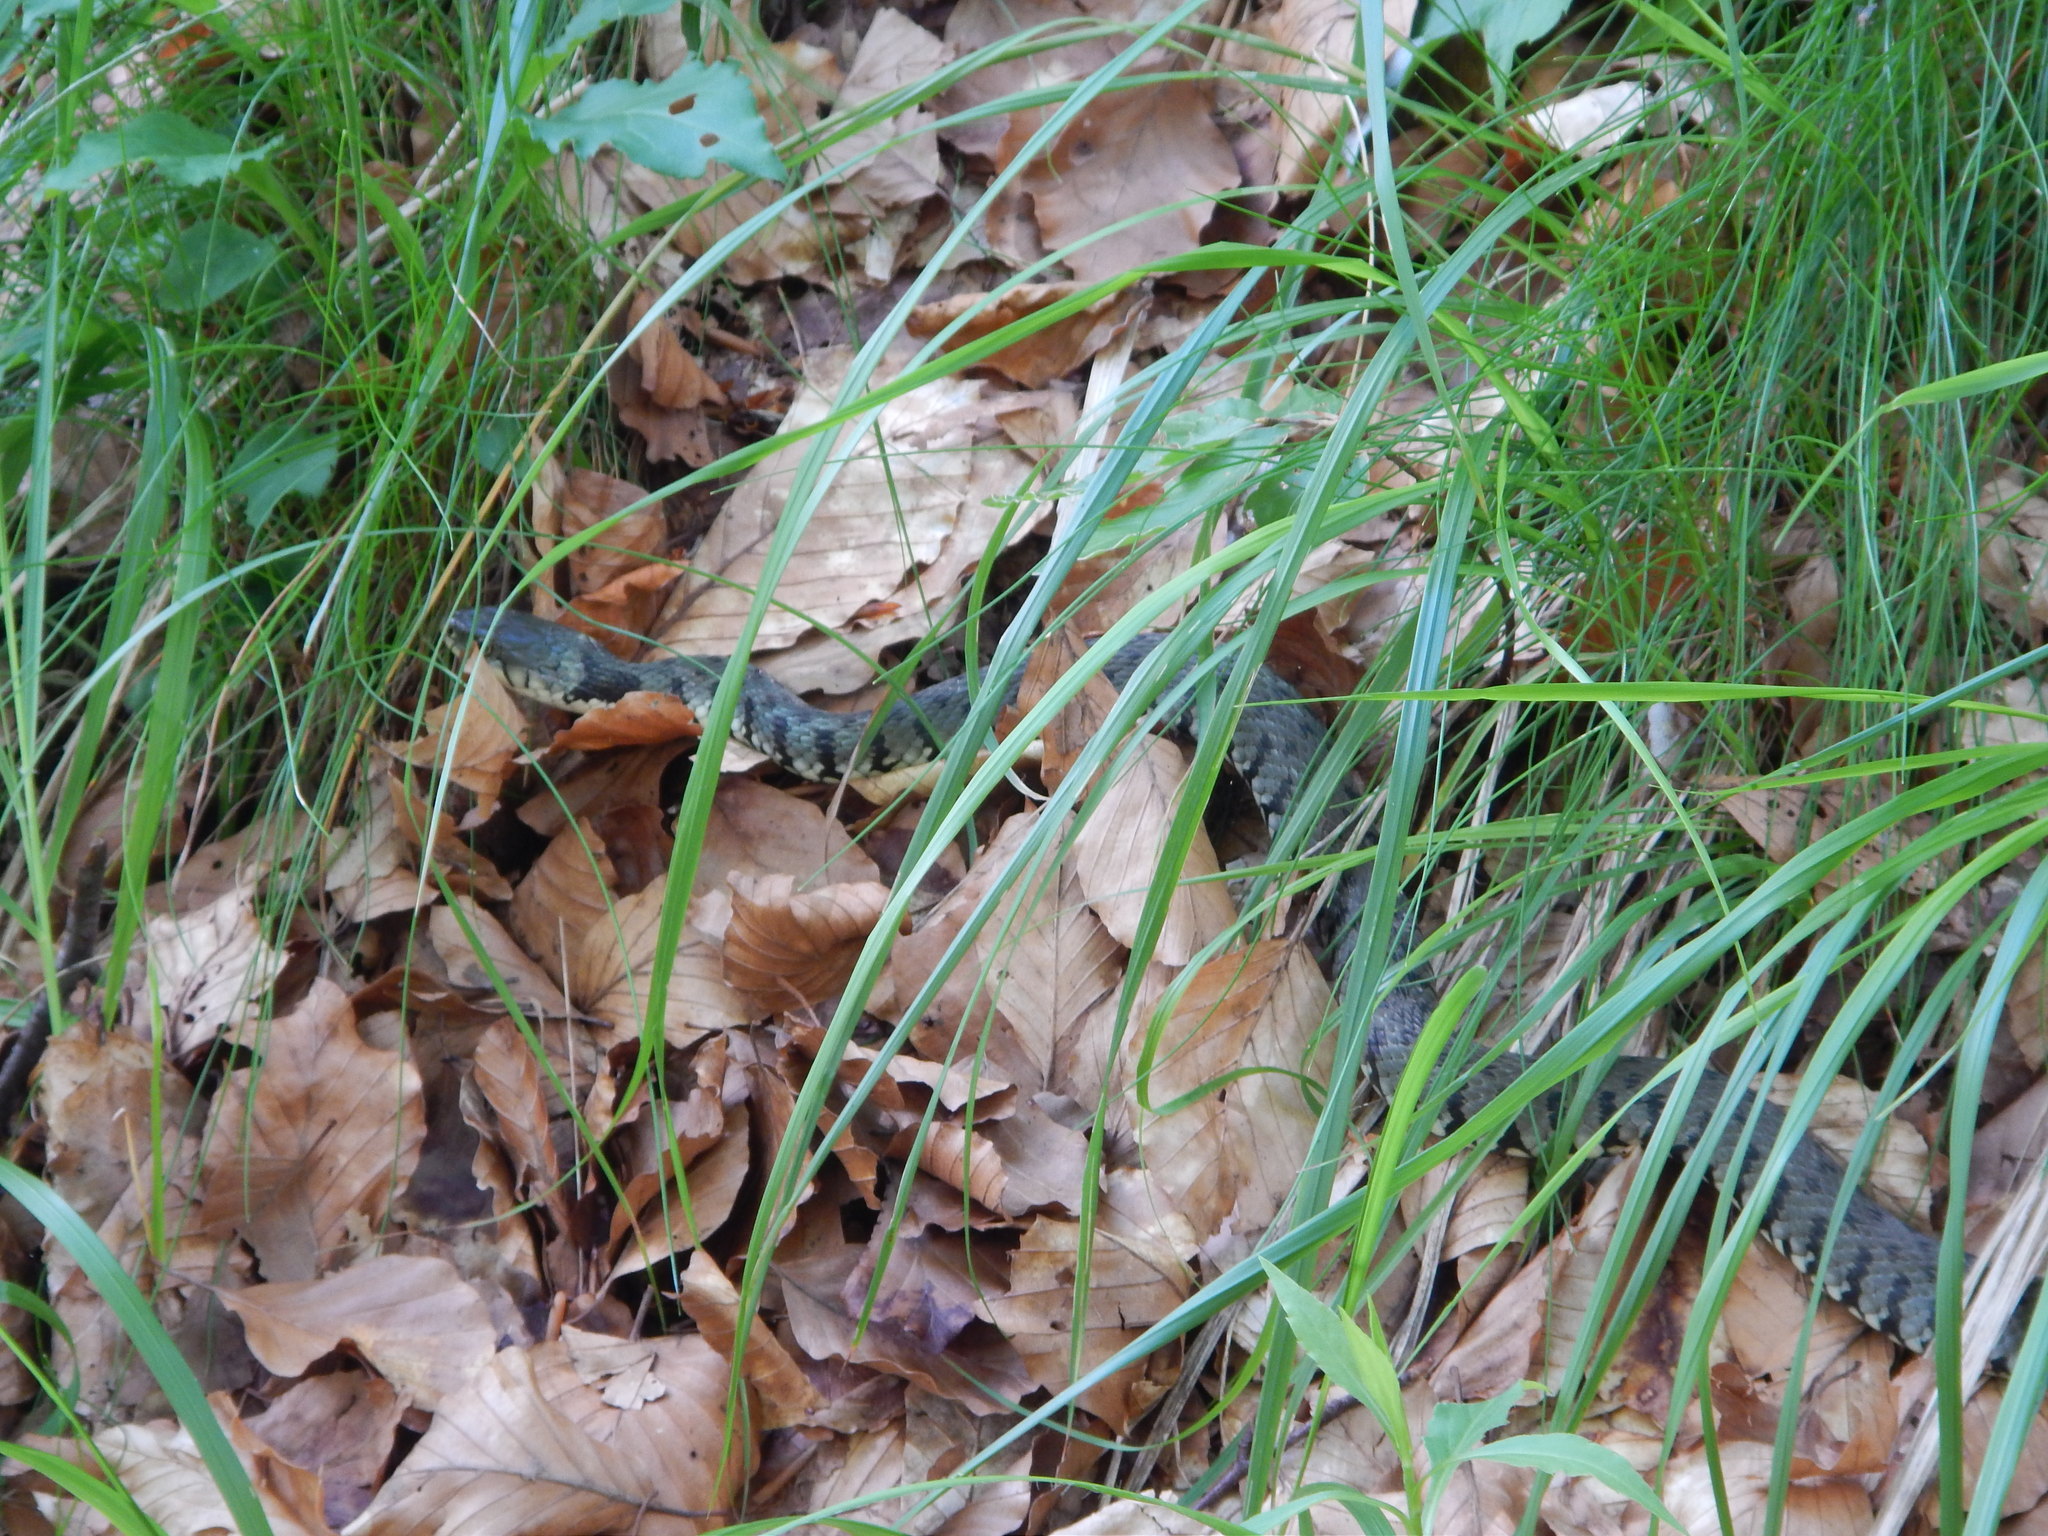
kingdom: Animalia
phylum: Chordata
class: Squamata
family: Colubridae
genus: Natrix
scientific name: Natrix helvetica
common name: Banded grass snake
